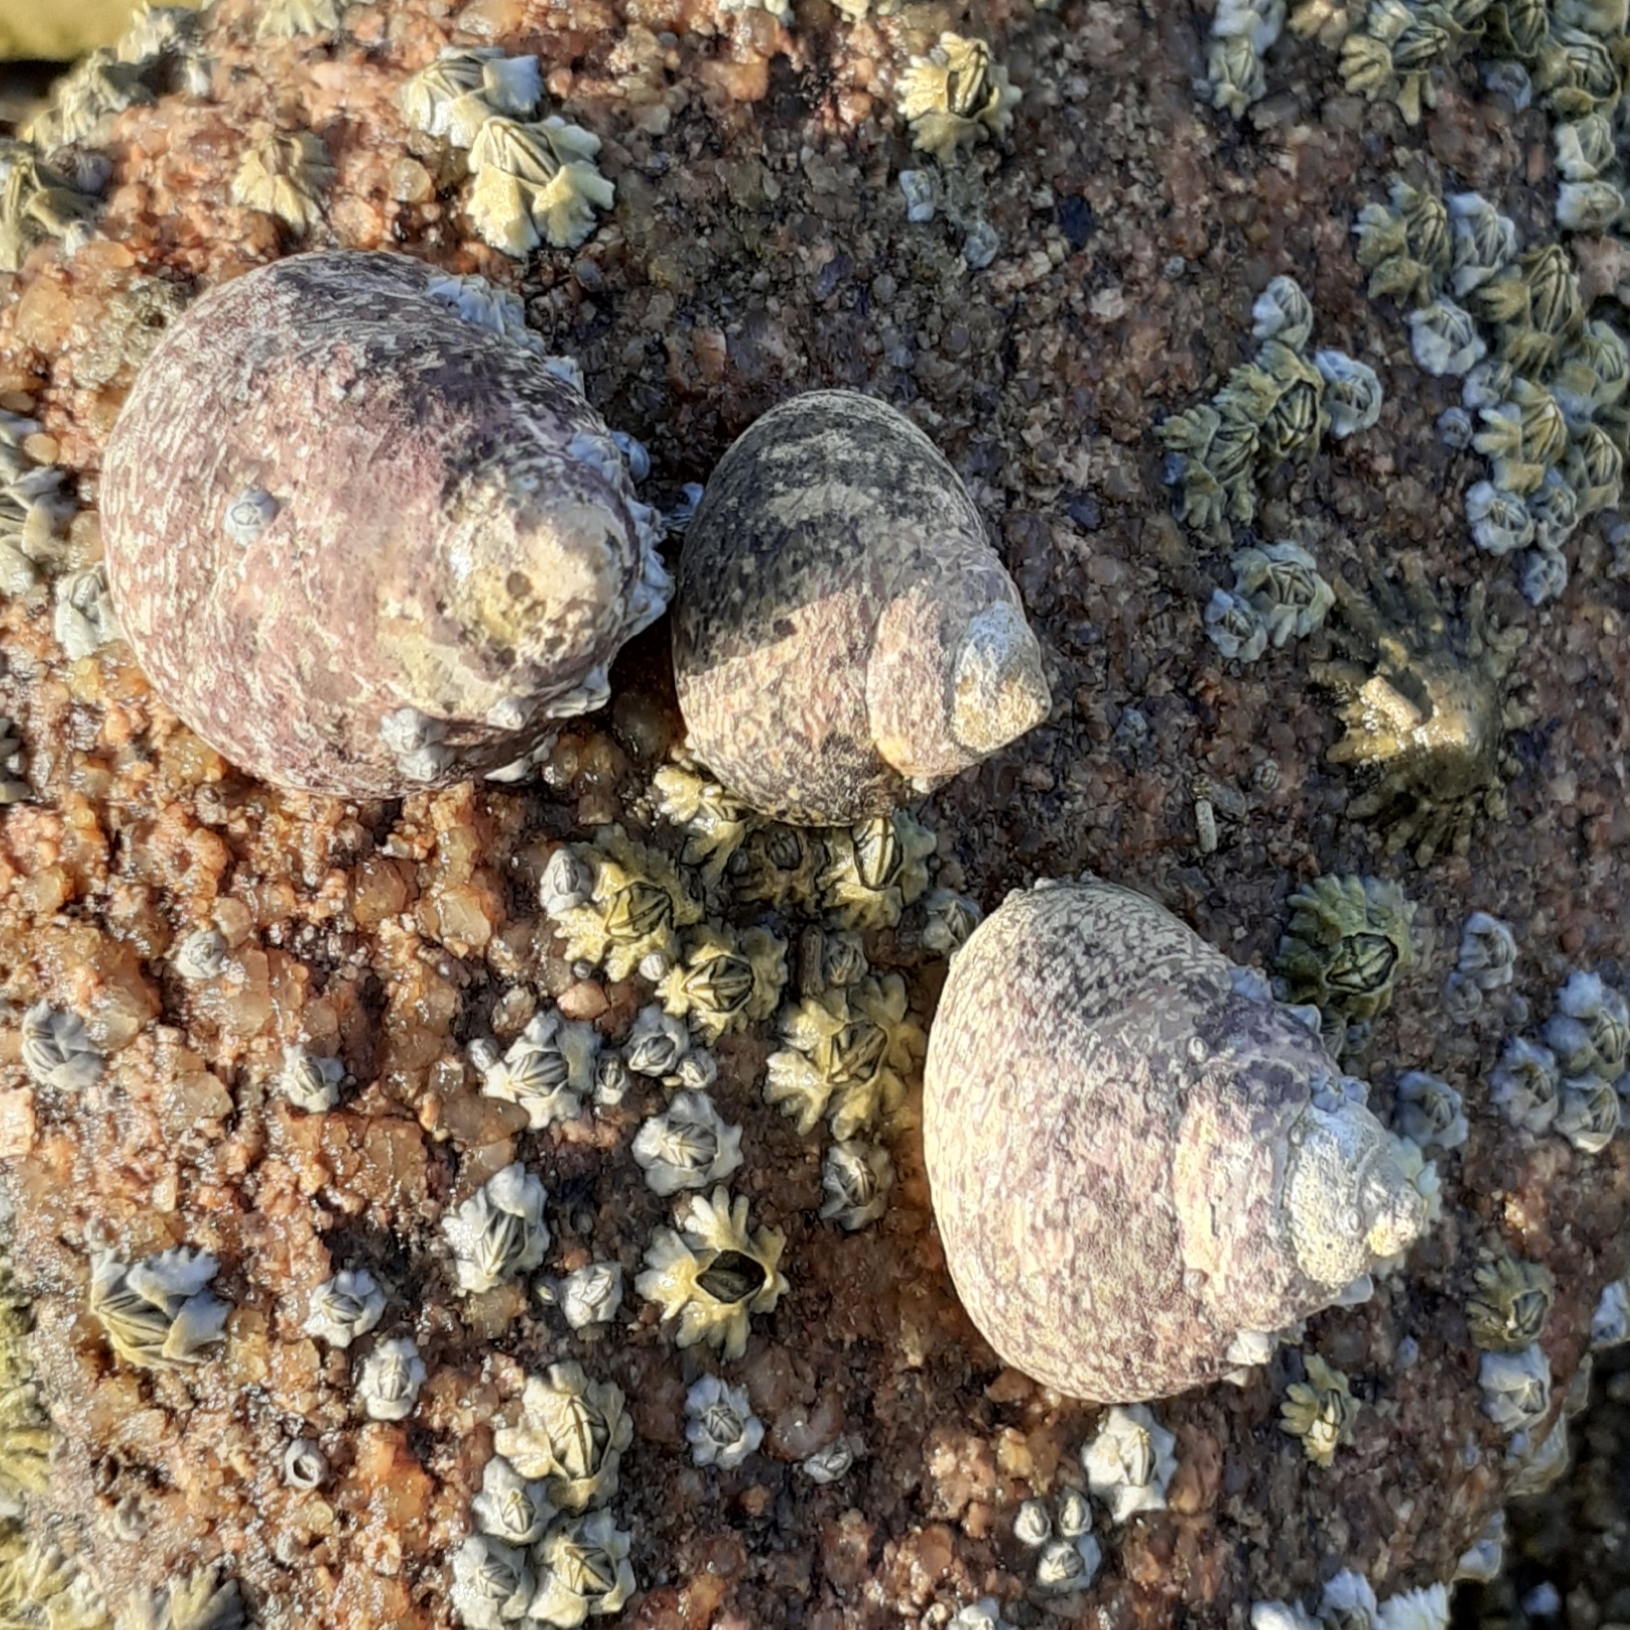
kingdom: Animalia
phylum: Mollusca
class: Gastropoda
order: Trochida
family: Trochidae
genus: Phorcus
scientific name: Phorcus lineatus
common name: Toothed top shell
